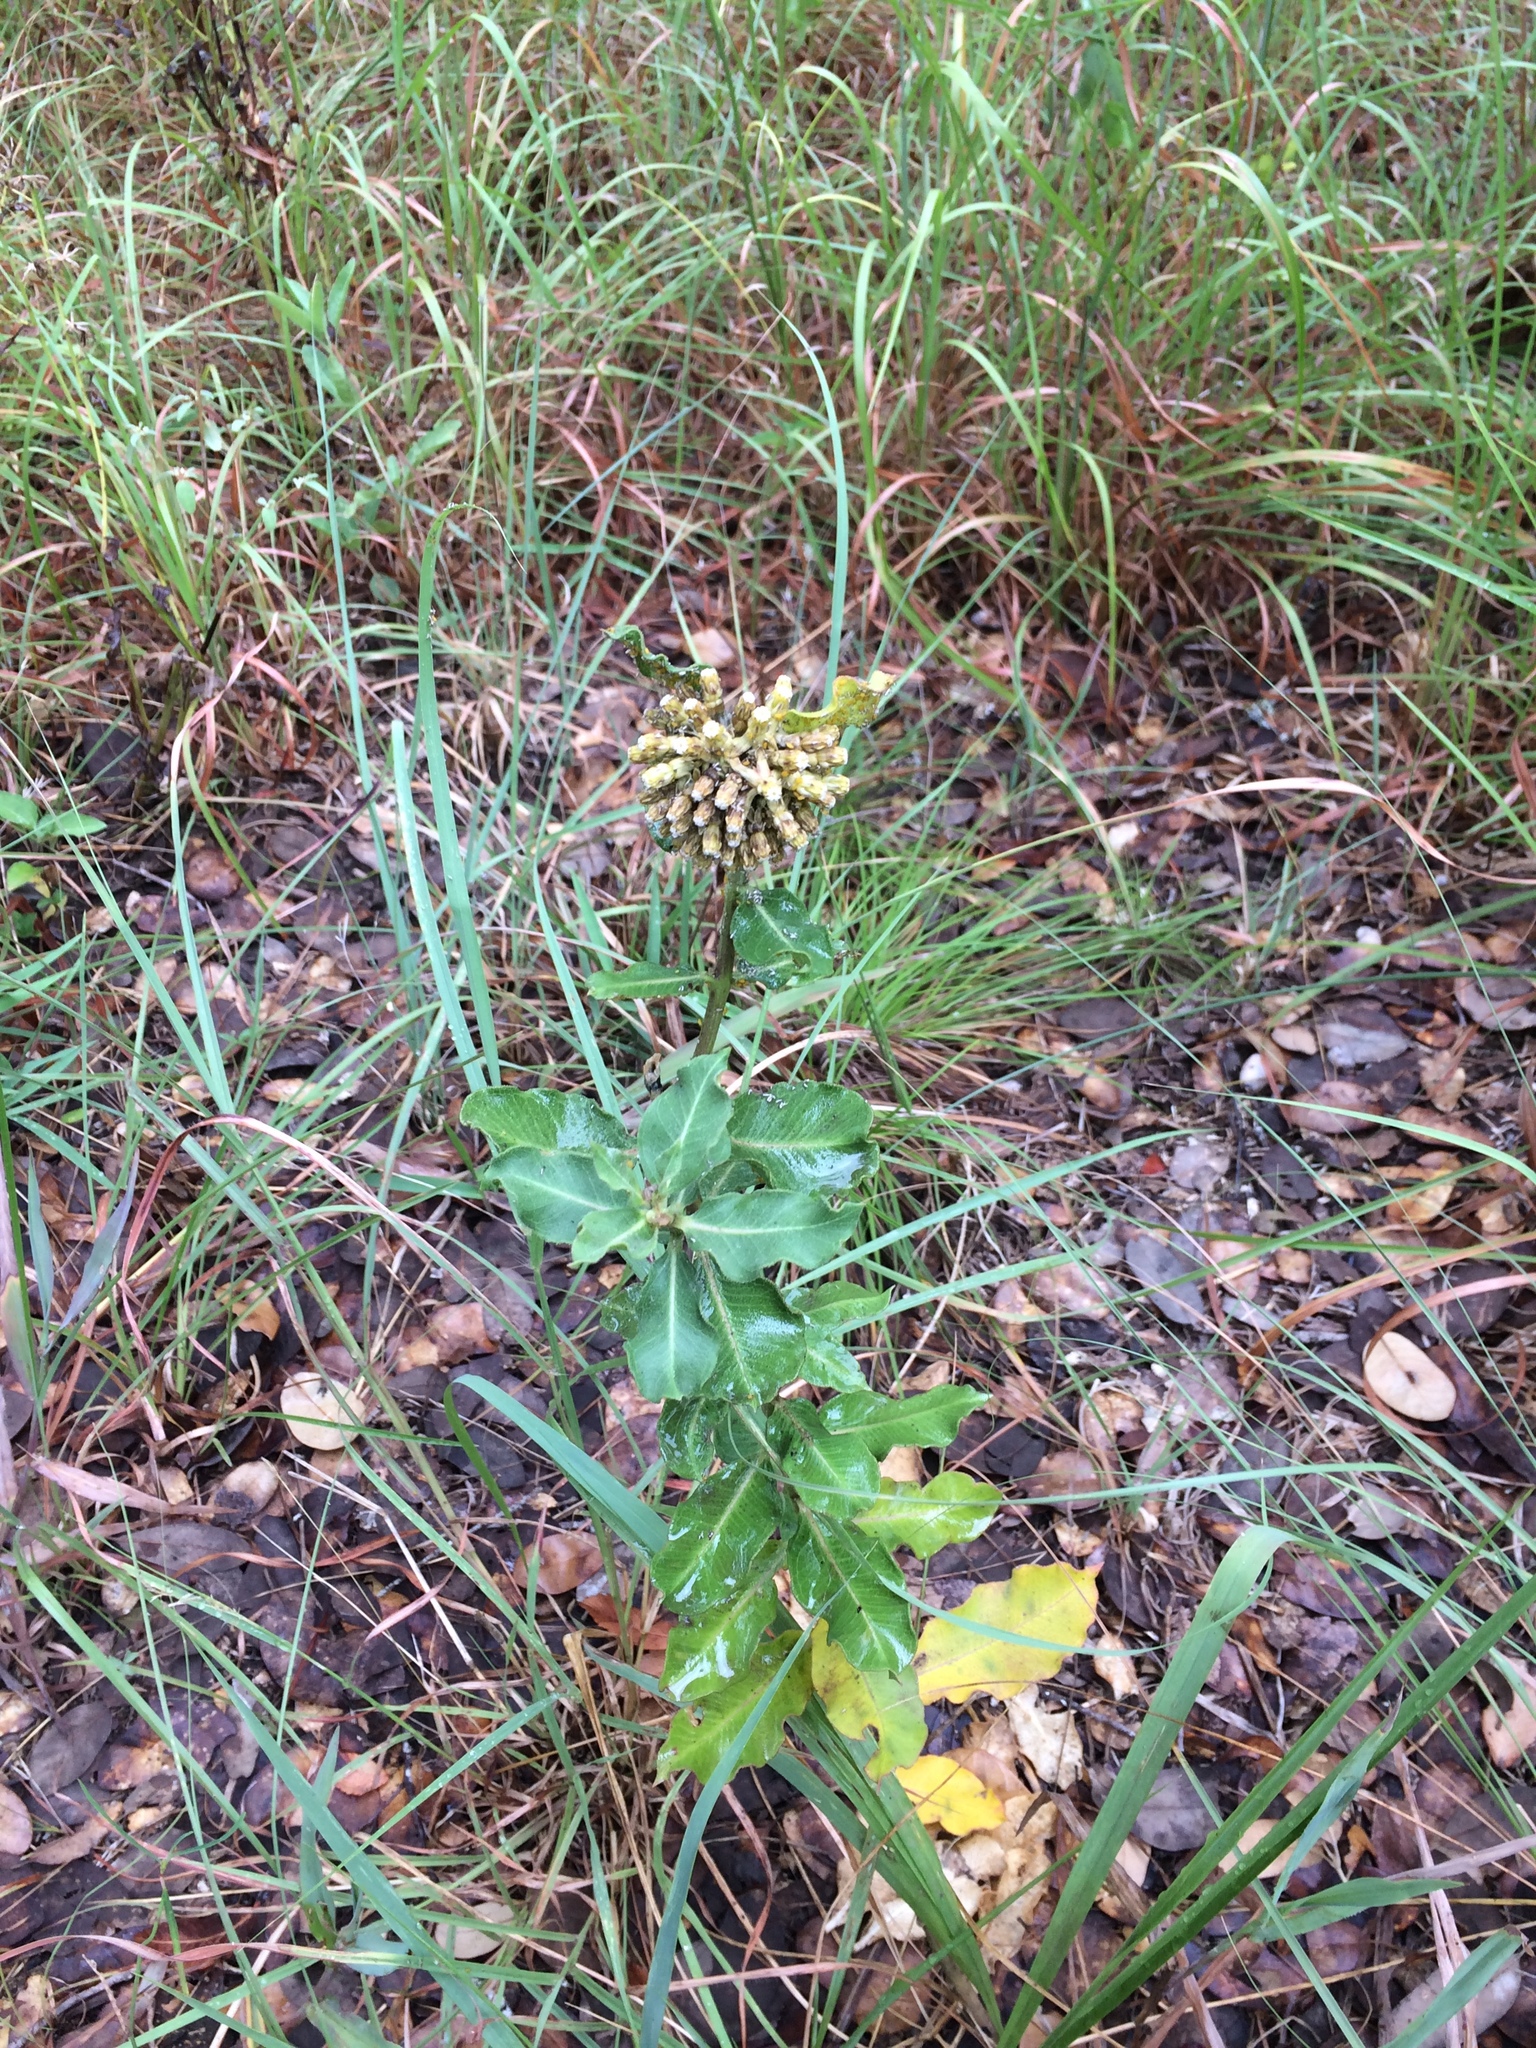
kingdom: Plantae
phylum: Tracheophyta
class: Magnoliopsida
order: Gentianales
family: Apocynaceae
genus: Asclepias
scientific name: Asclepias viridiflora
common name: Green comet milkweed
